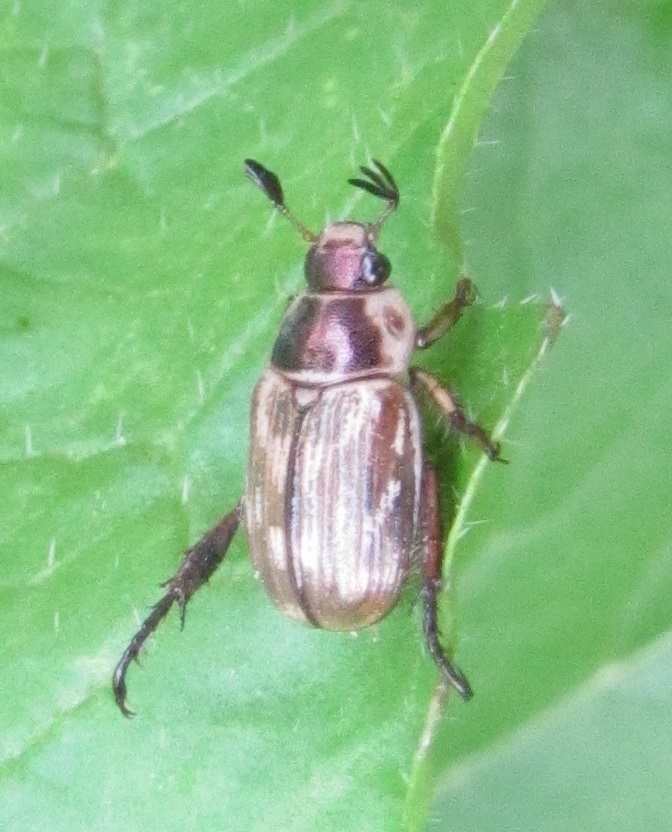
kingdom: Animalia
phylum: Arthropoda
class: Insecta
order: Coleoptera
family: Scarabaeidae
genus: Exomala
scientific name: Exomala orientalis
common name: Oriental beetle
